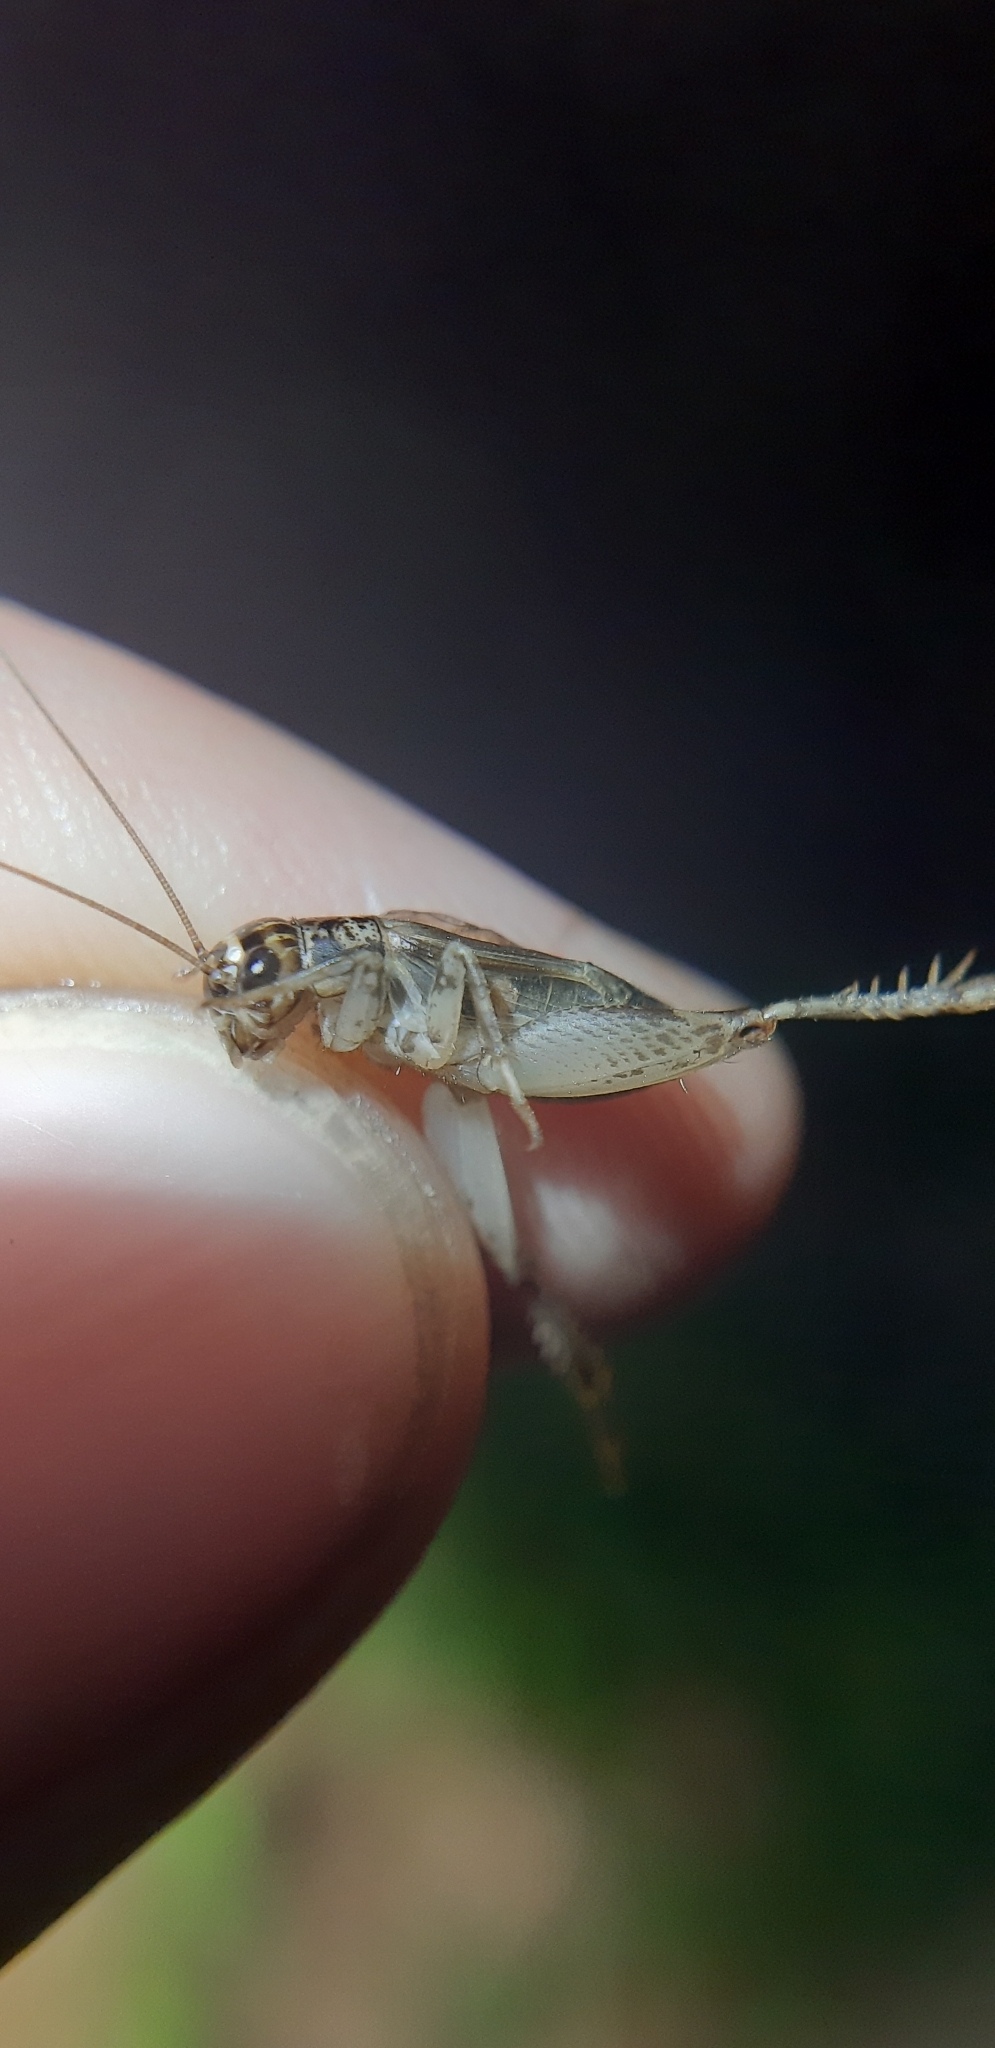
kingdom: Animalia
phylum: Arthropoda
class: Insecta
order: Orthoptera
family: Gryllidae
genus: Eumodicogryllus
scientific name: Eumodicogryllus bordigalensis
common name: Bordeaux cricket
